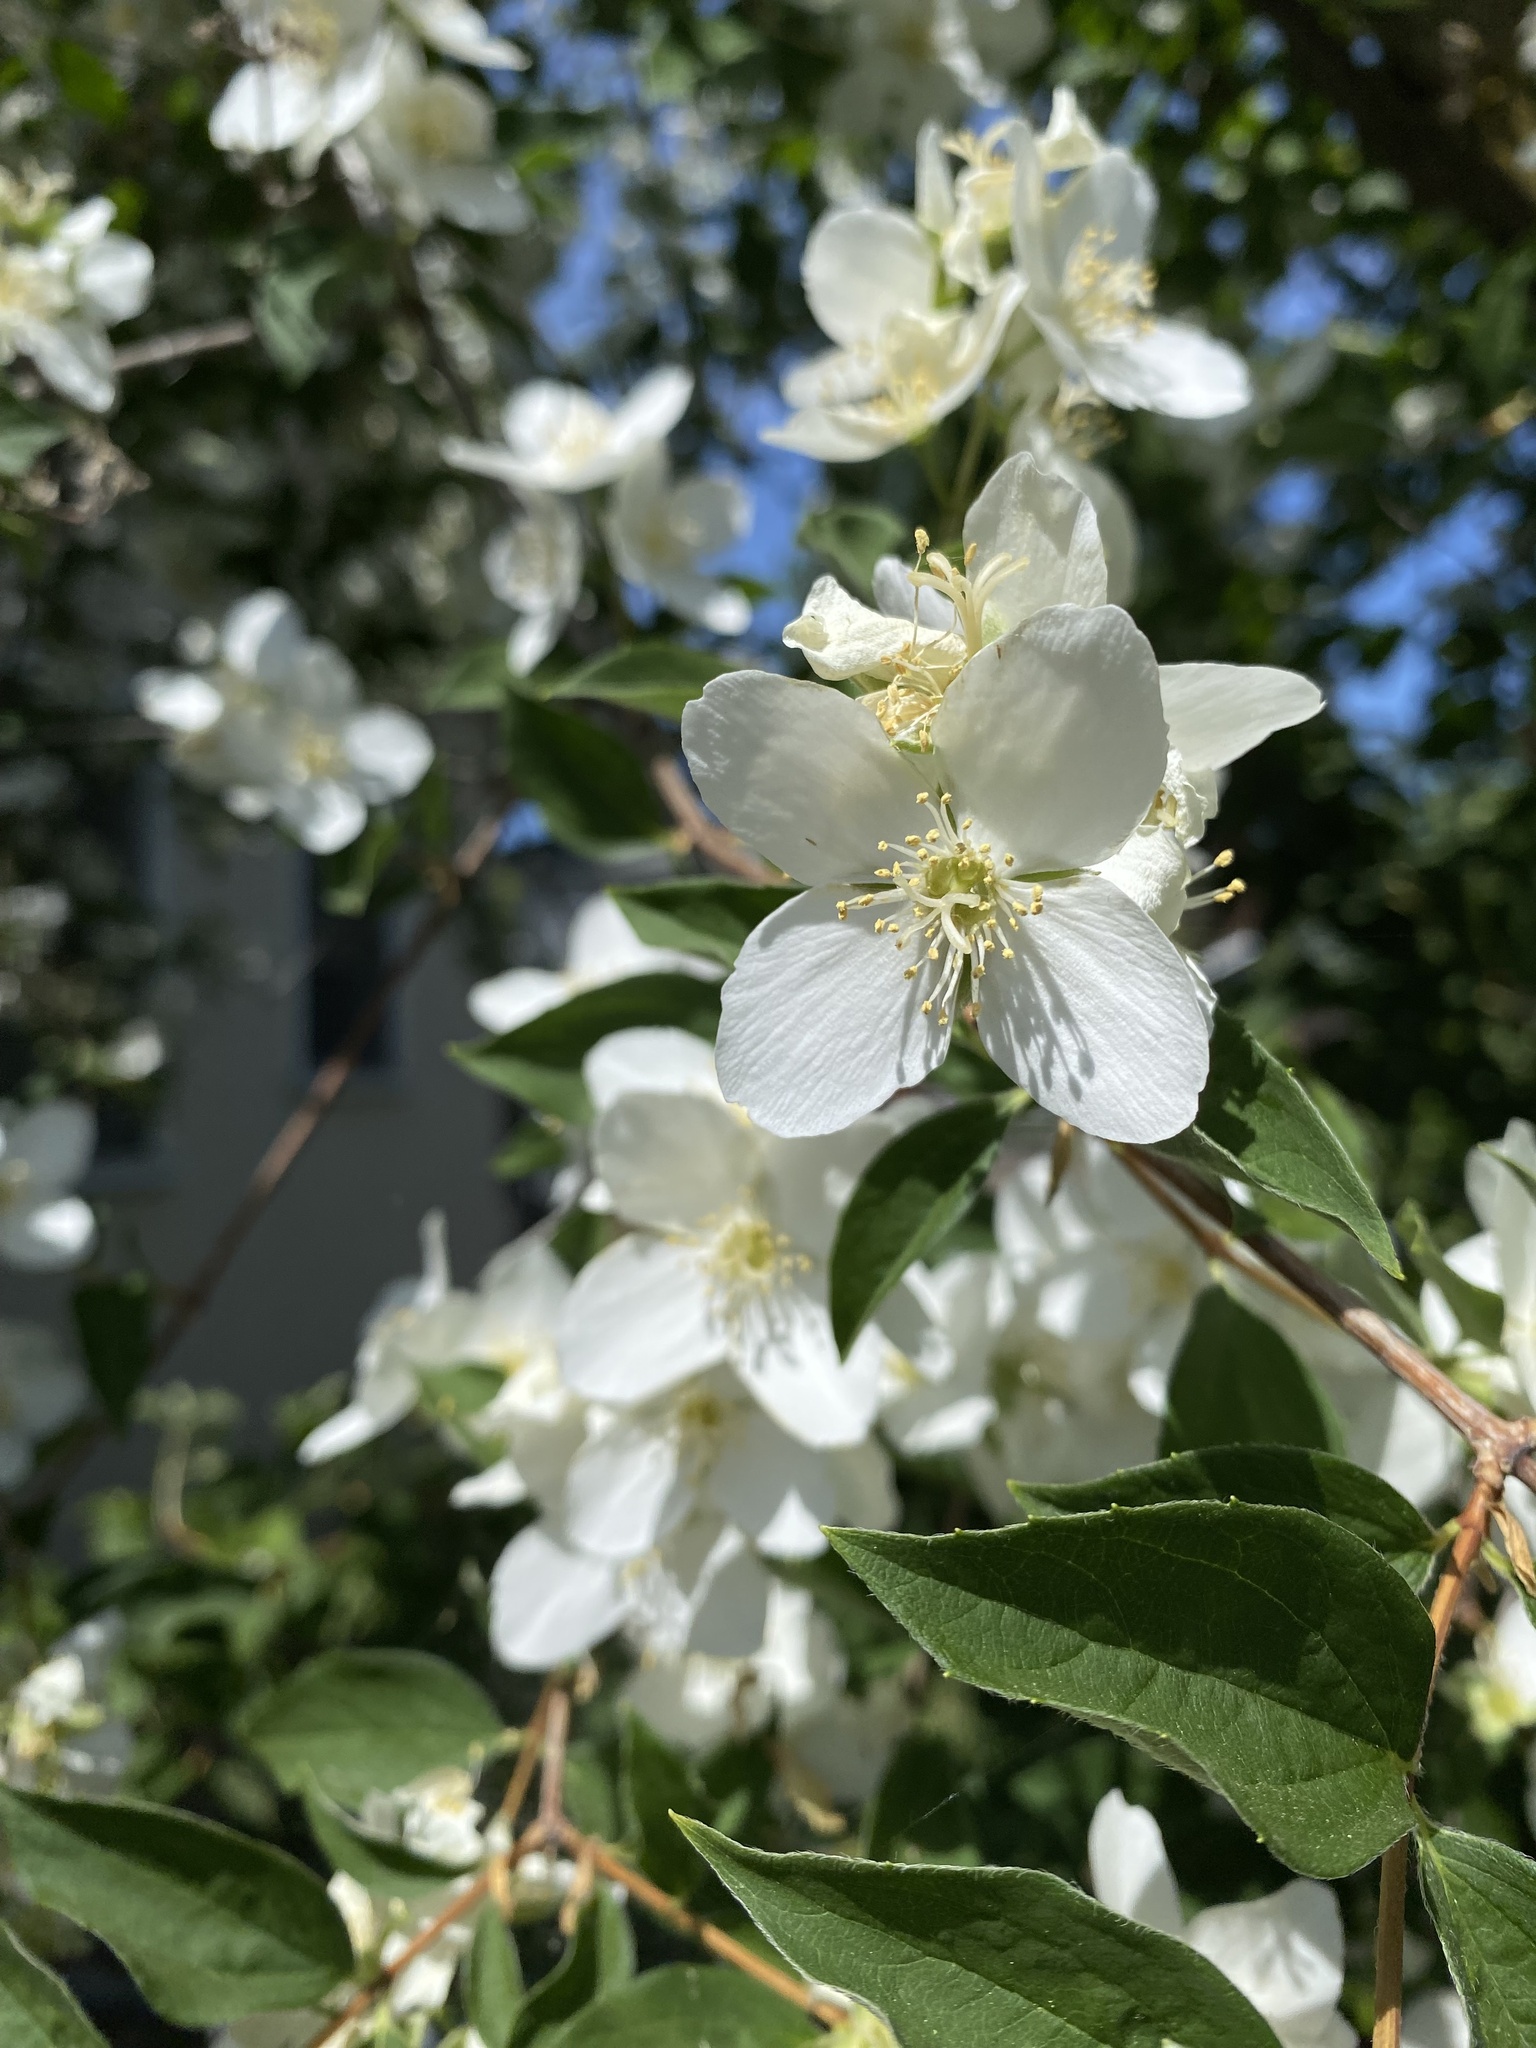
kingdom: Plantae
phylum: Tracheophyta
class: Magnoliopsida
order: Cornales
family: Hydrangeaceae
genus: Philadelphus
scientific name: Philadelphus lewisii
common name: Lewis's mock orange
